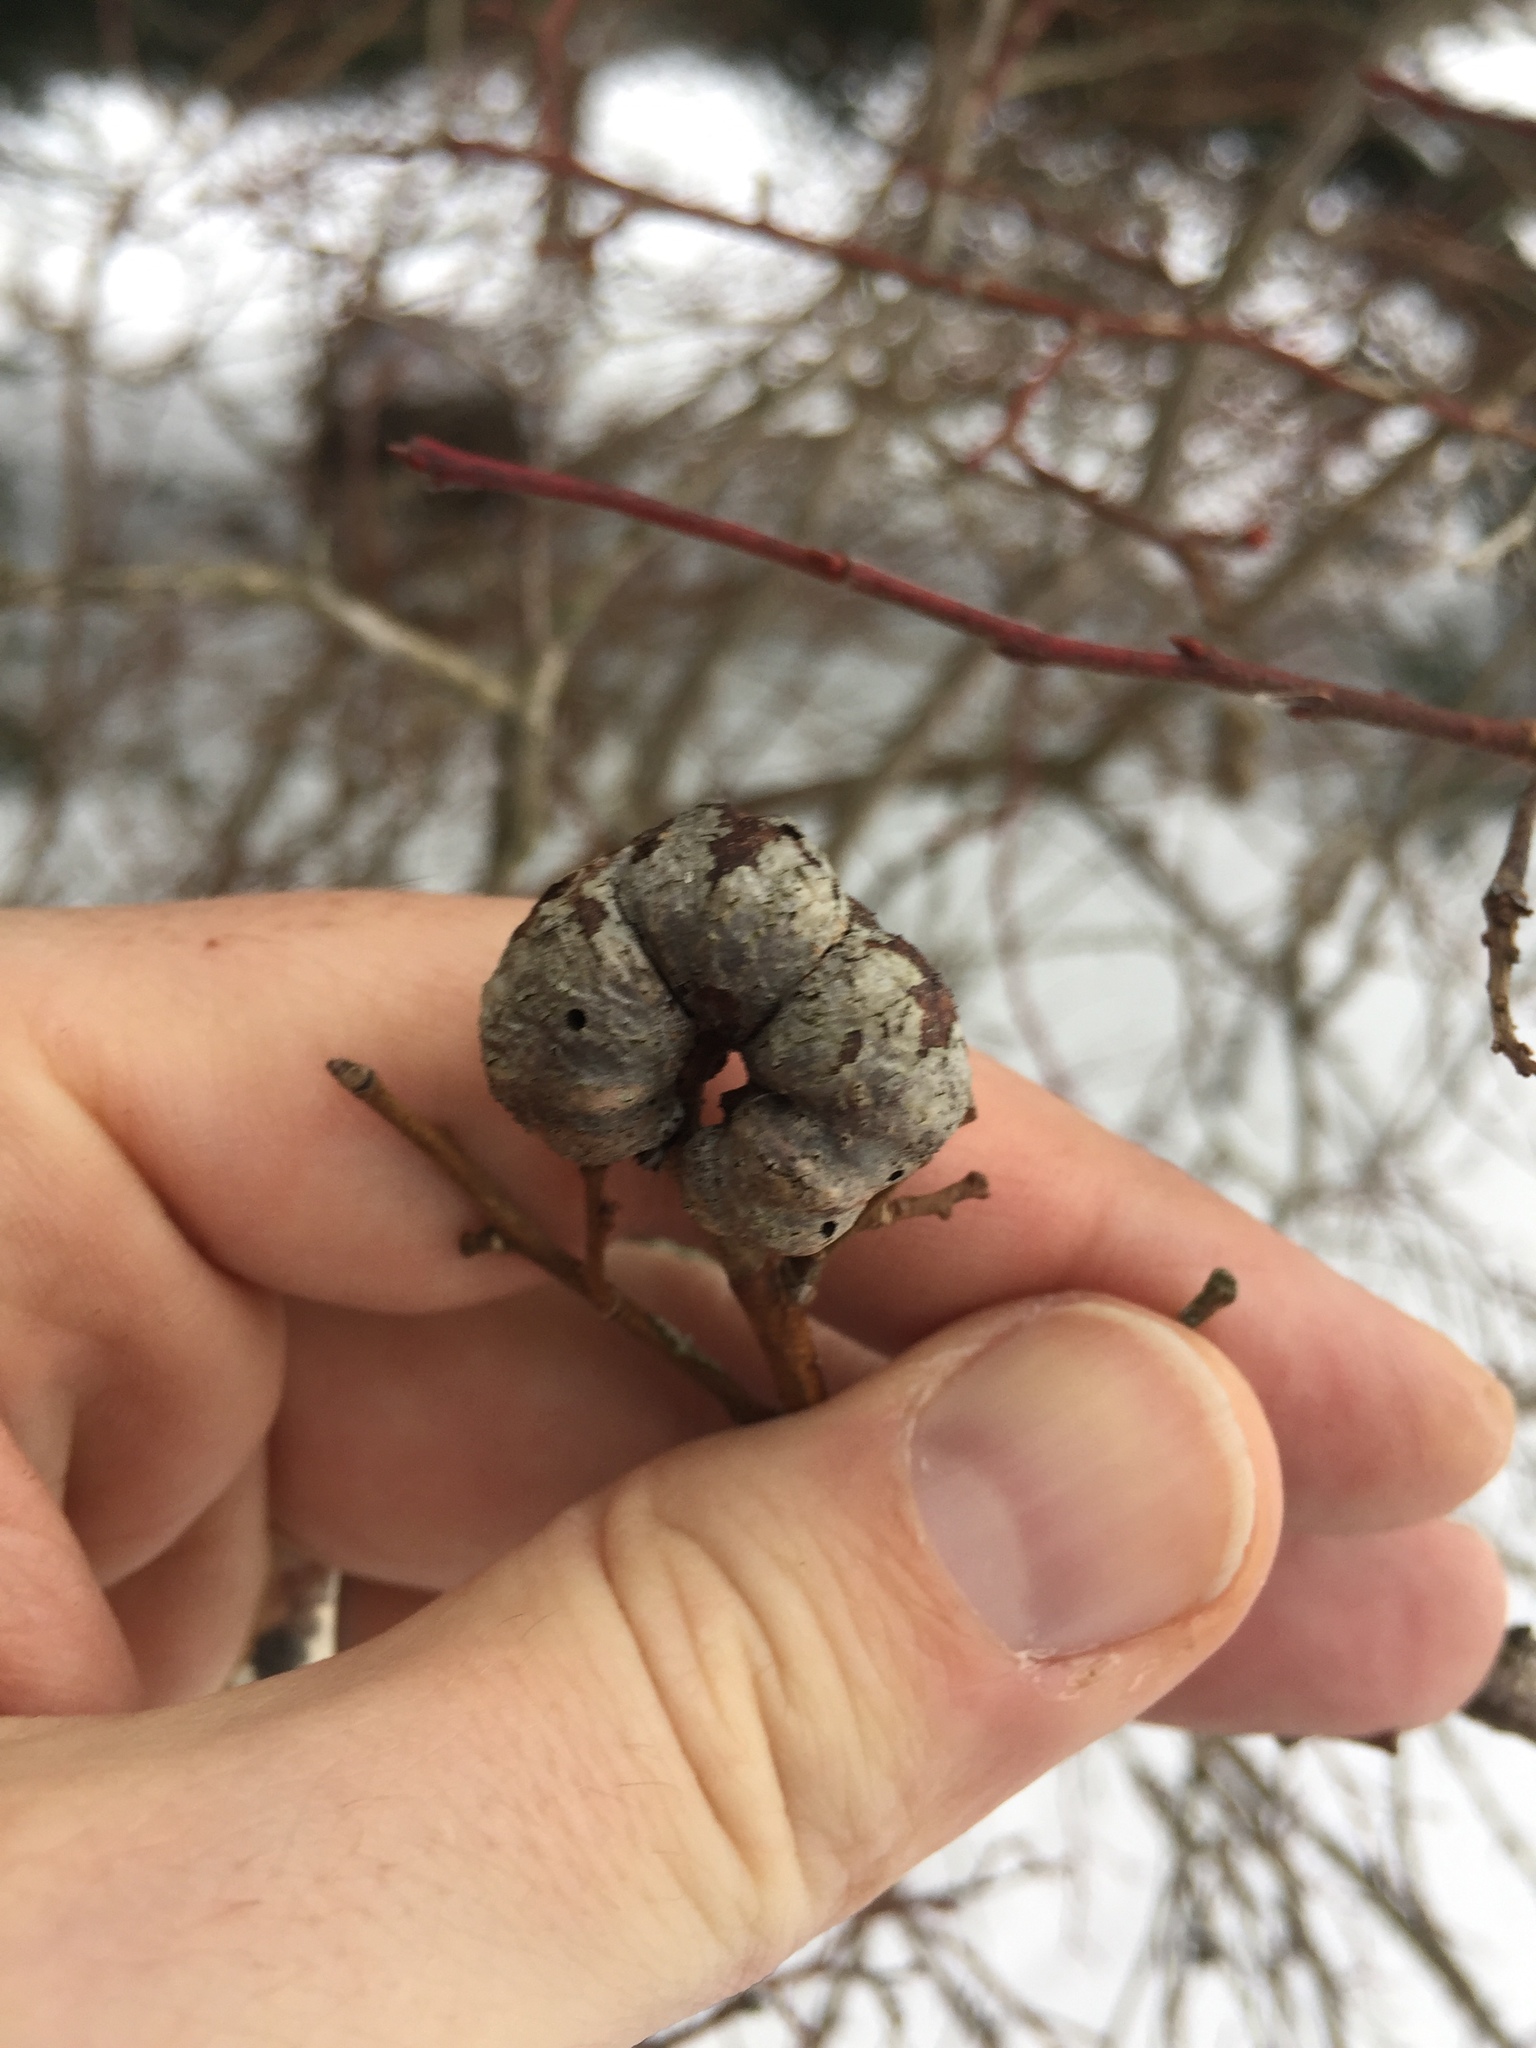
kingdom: Animalia
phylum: Arthropoda
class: Insecta
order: Hymenoptera
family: Pteromalidae
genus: Hemadas
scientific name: Hemadas nubilipennis
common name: Blueberry stem gall wasp
